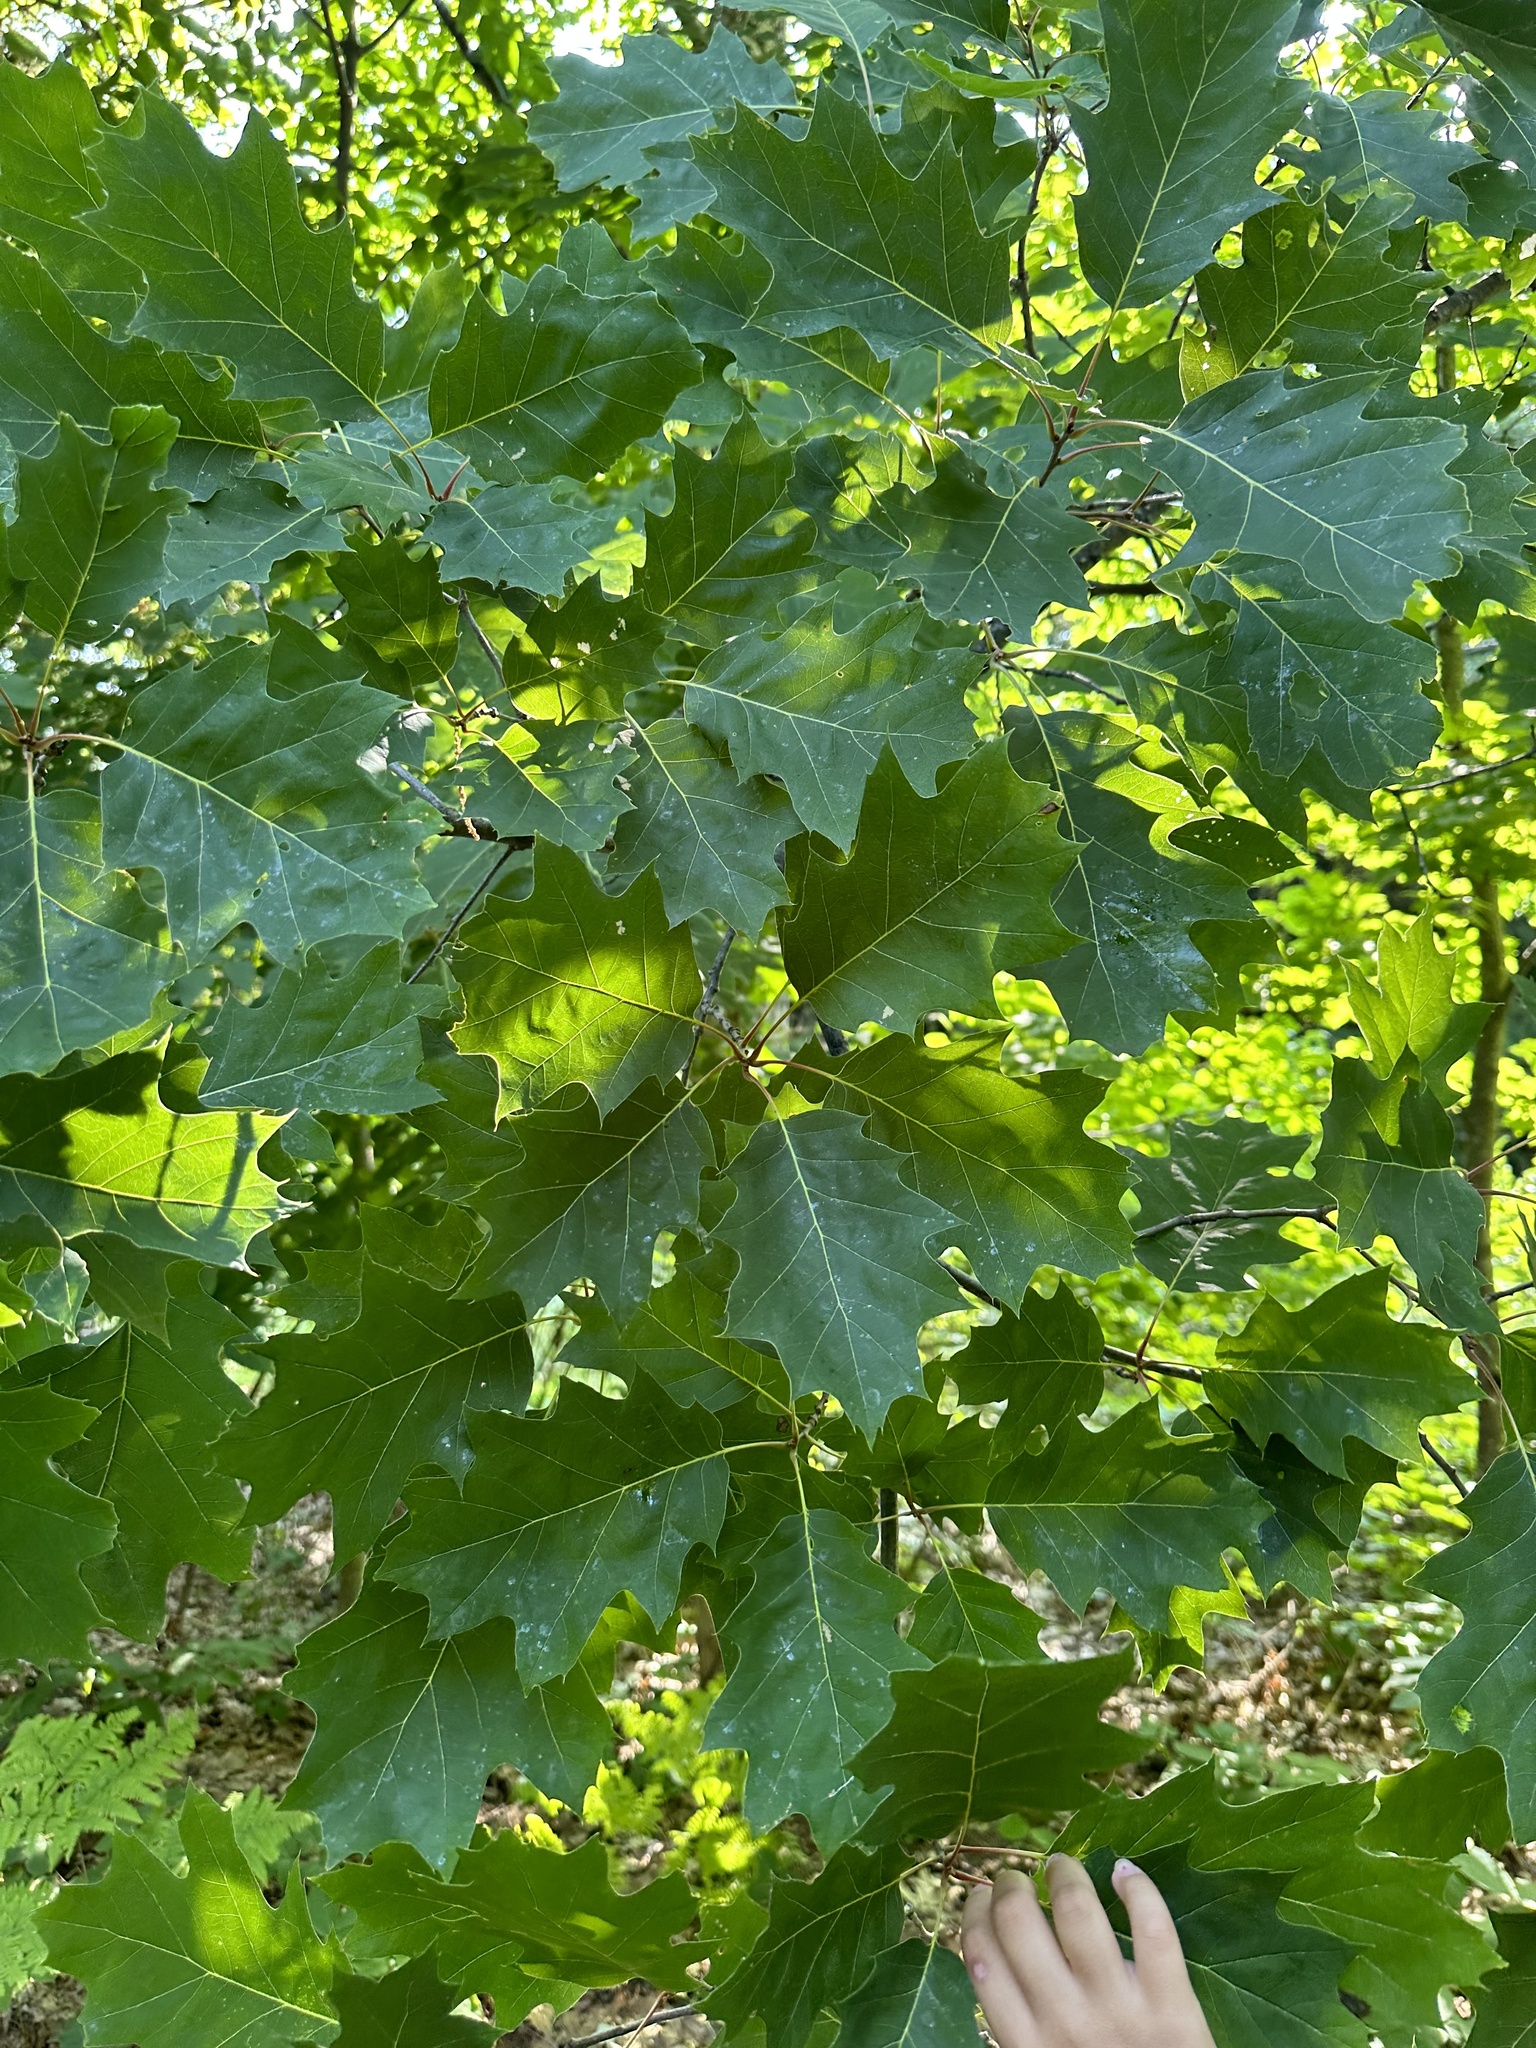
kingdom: Plantae
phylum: Tracheophyta
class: Magnoliopsida
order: Fagales
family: Fagaceae
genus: Quercus
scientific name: Quercus rubra
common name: Red oak
